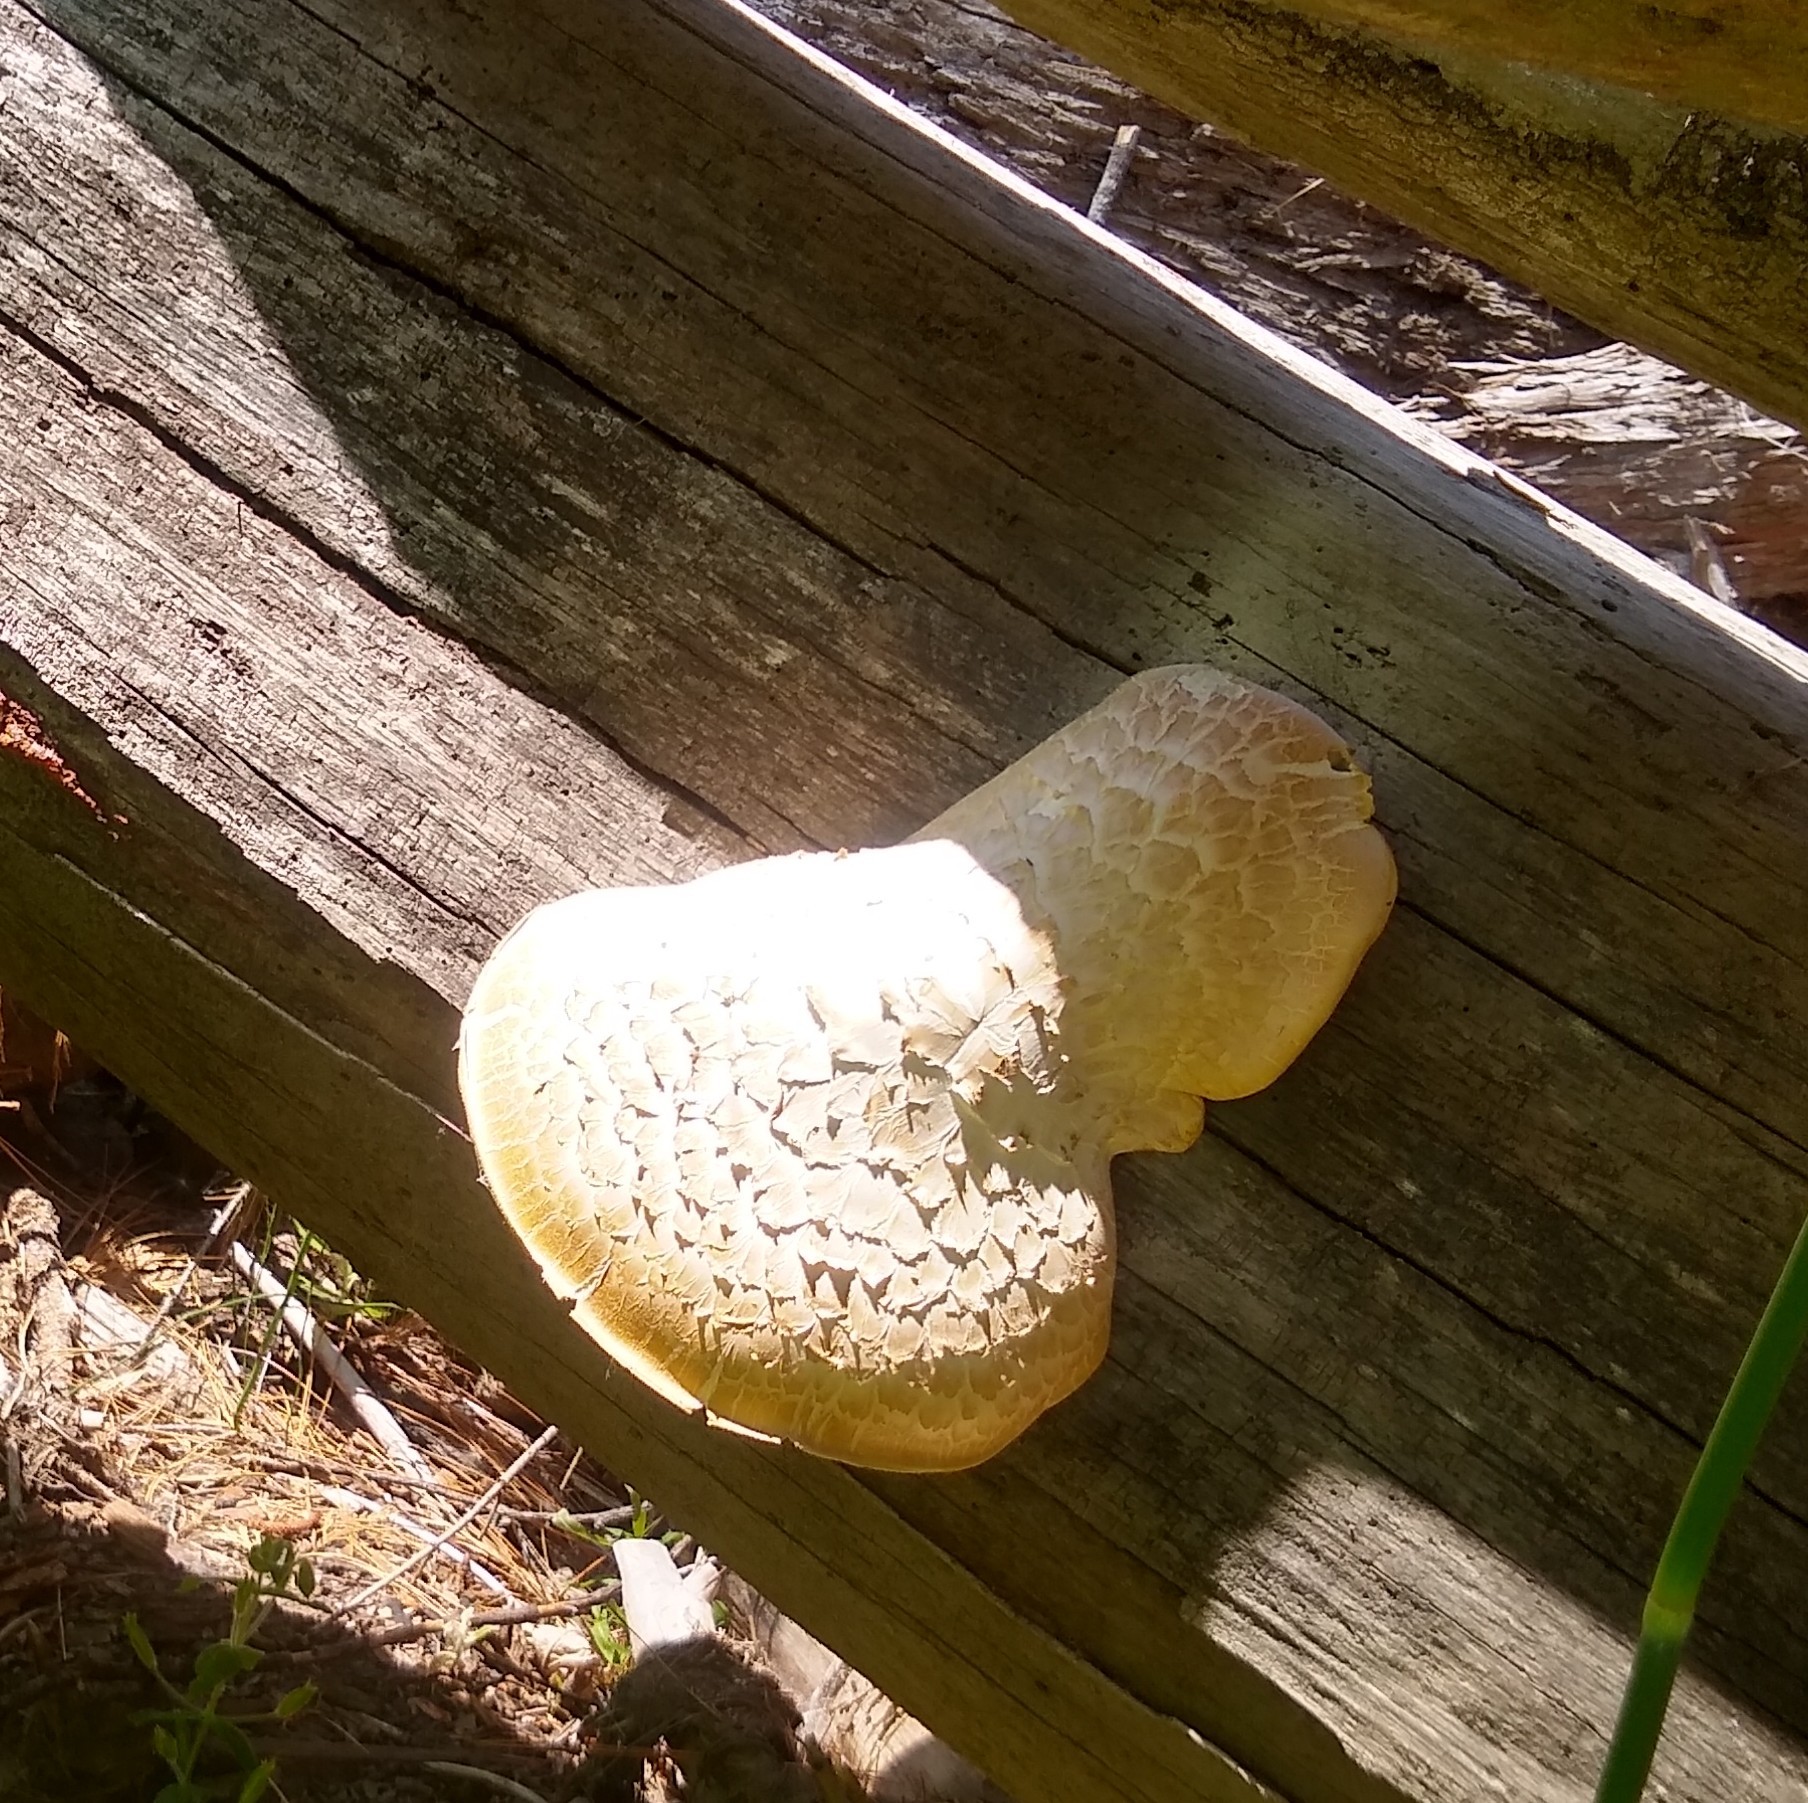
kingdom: Fungi
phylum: Basidiomycota
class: Agaricomycetes
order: Gloeophyllales
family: Gloeophyllaceae
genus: Neolentinus
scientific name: Neolentinus ponderosus
